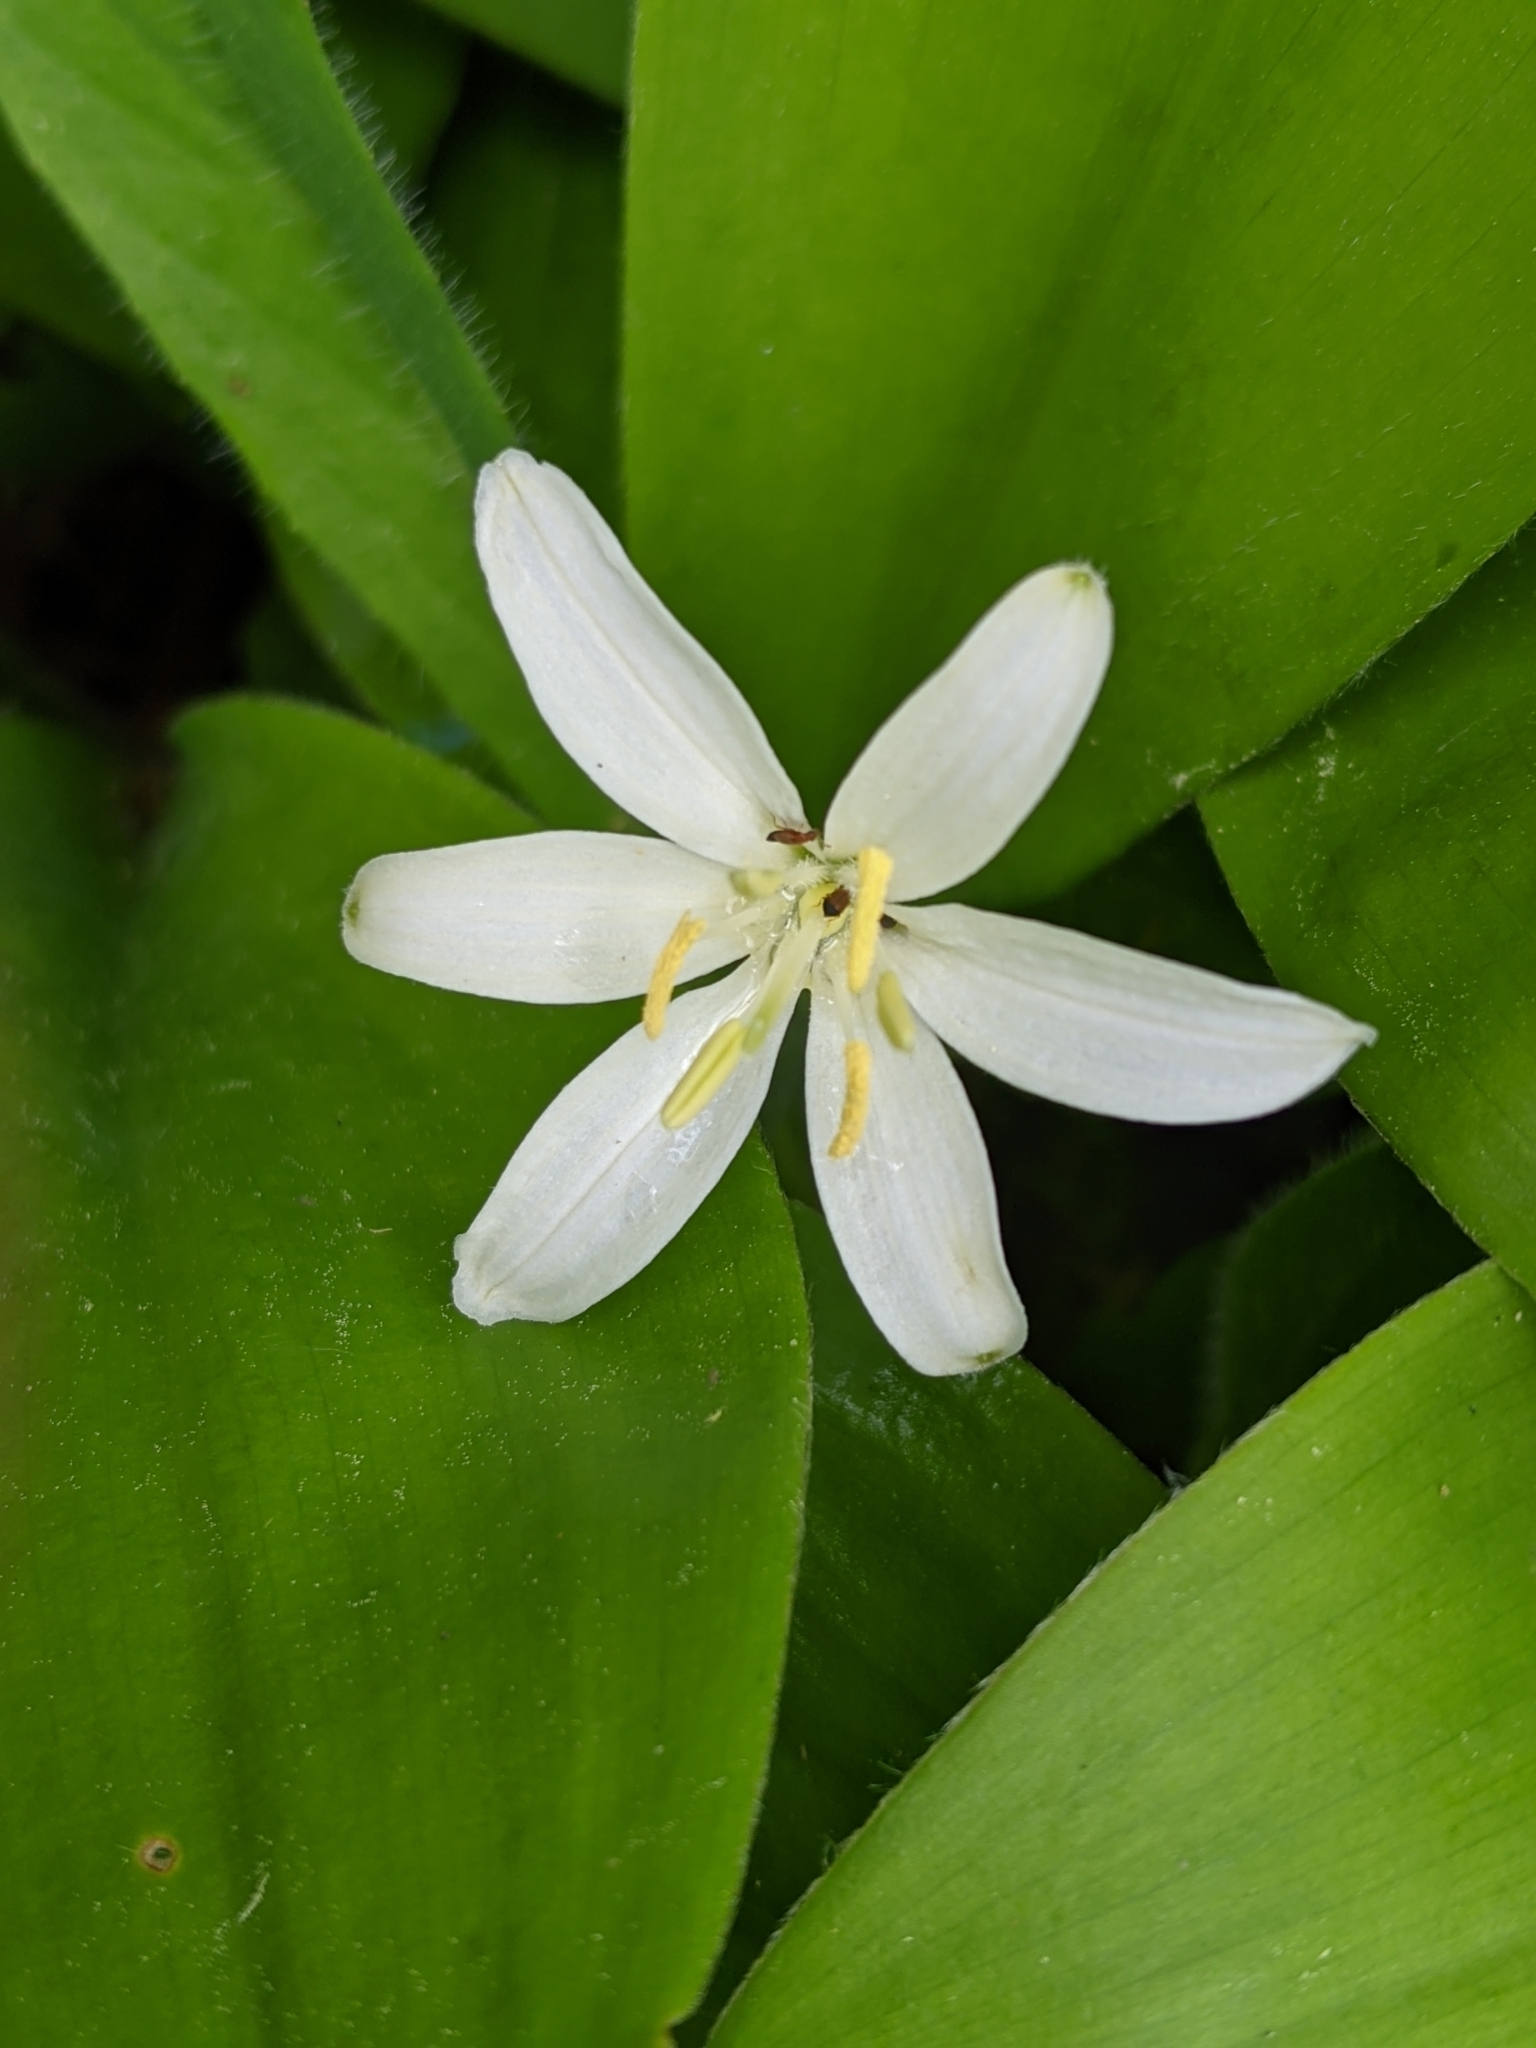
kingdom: Plantae
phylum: Tracheophyta
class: Liliopsida
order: Liliales
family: Liliaceae
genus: Clintonia
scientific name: Clintonia uniflora
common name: Queen's cup
